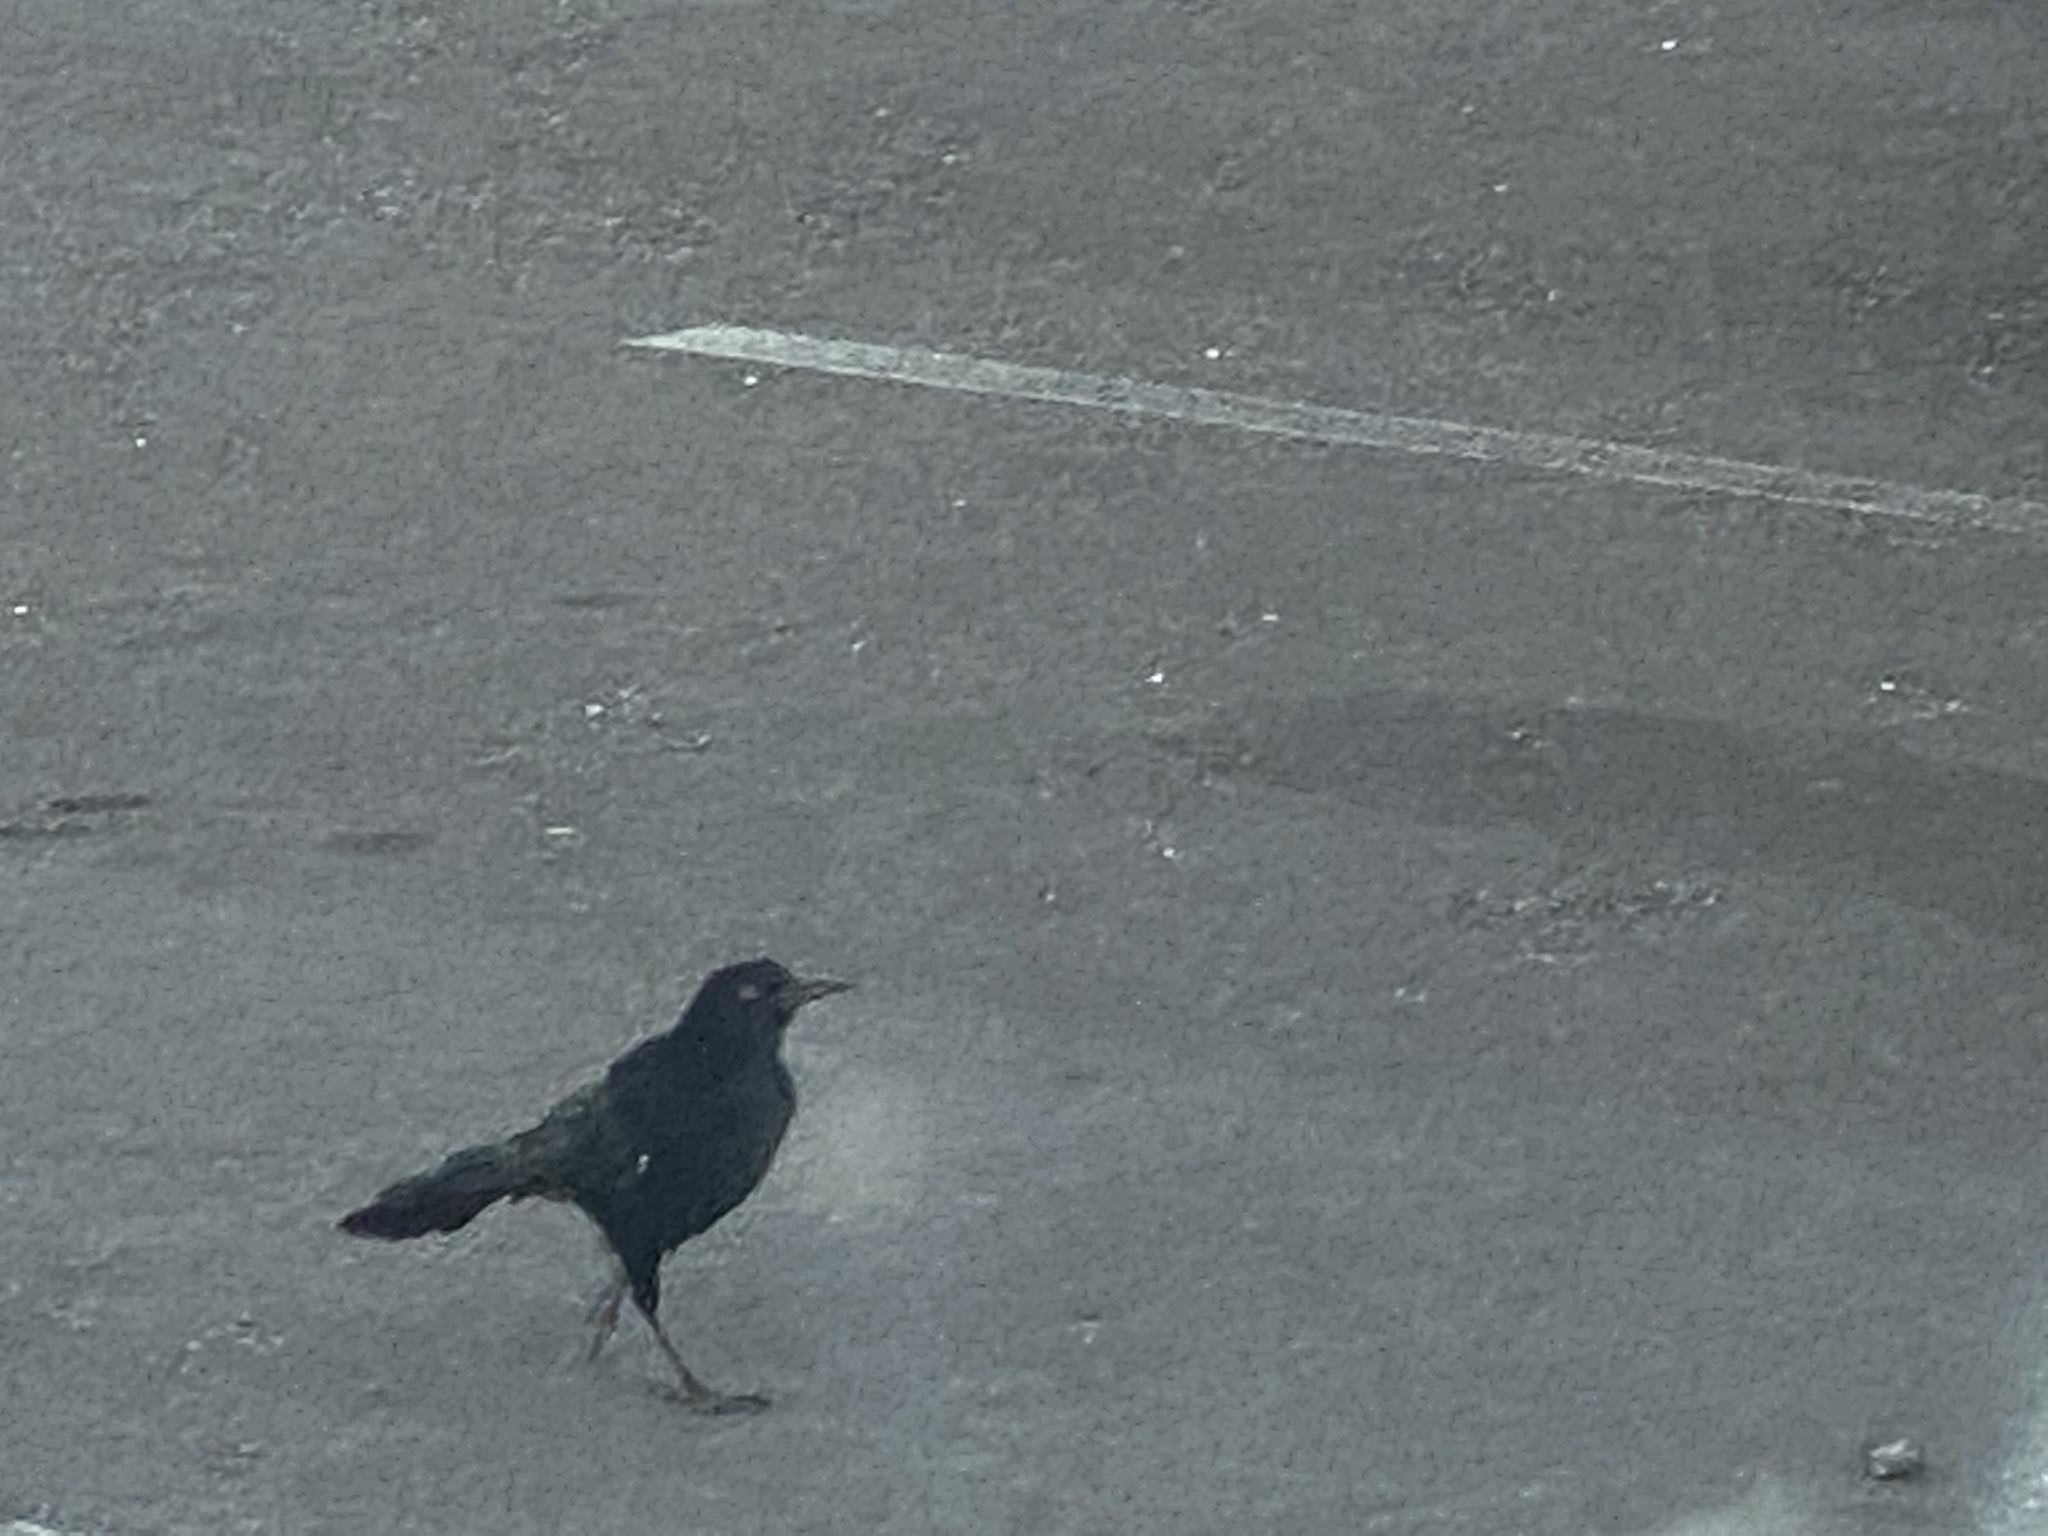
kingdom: Animalia
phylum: Chordata
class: Aves
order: Passeriformes
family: Icteridae
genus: Quiscalus
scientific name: Quiscalus mexicanus
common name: Great-tailed grackle
